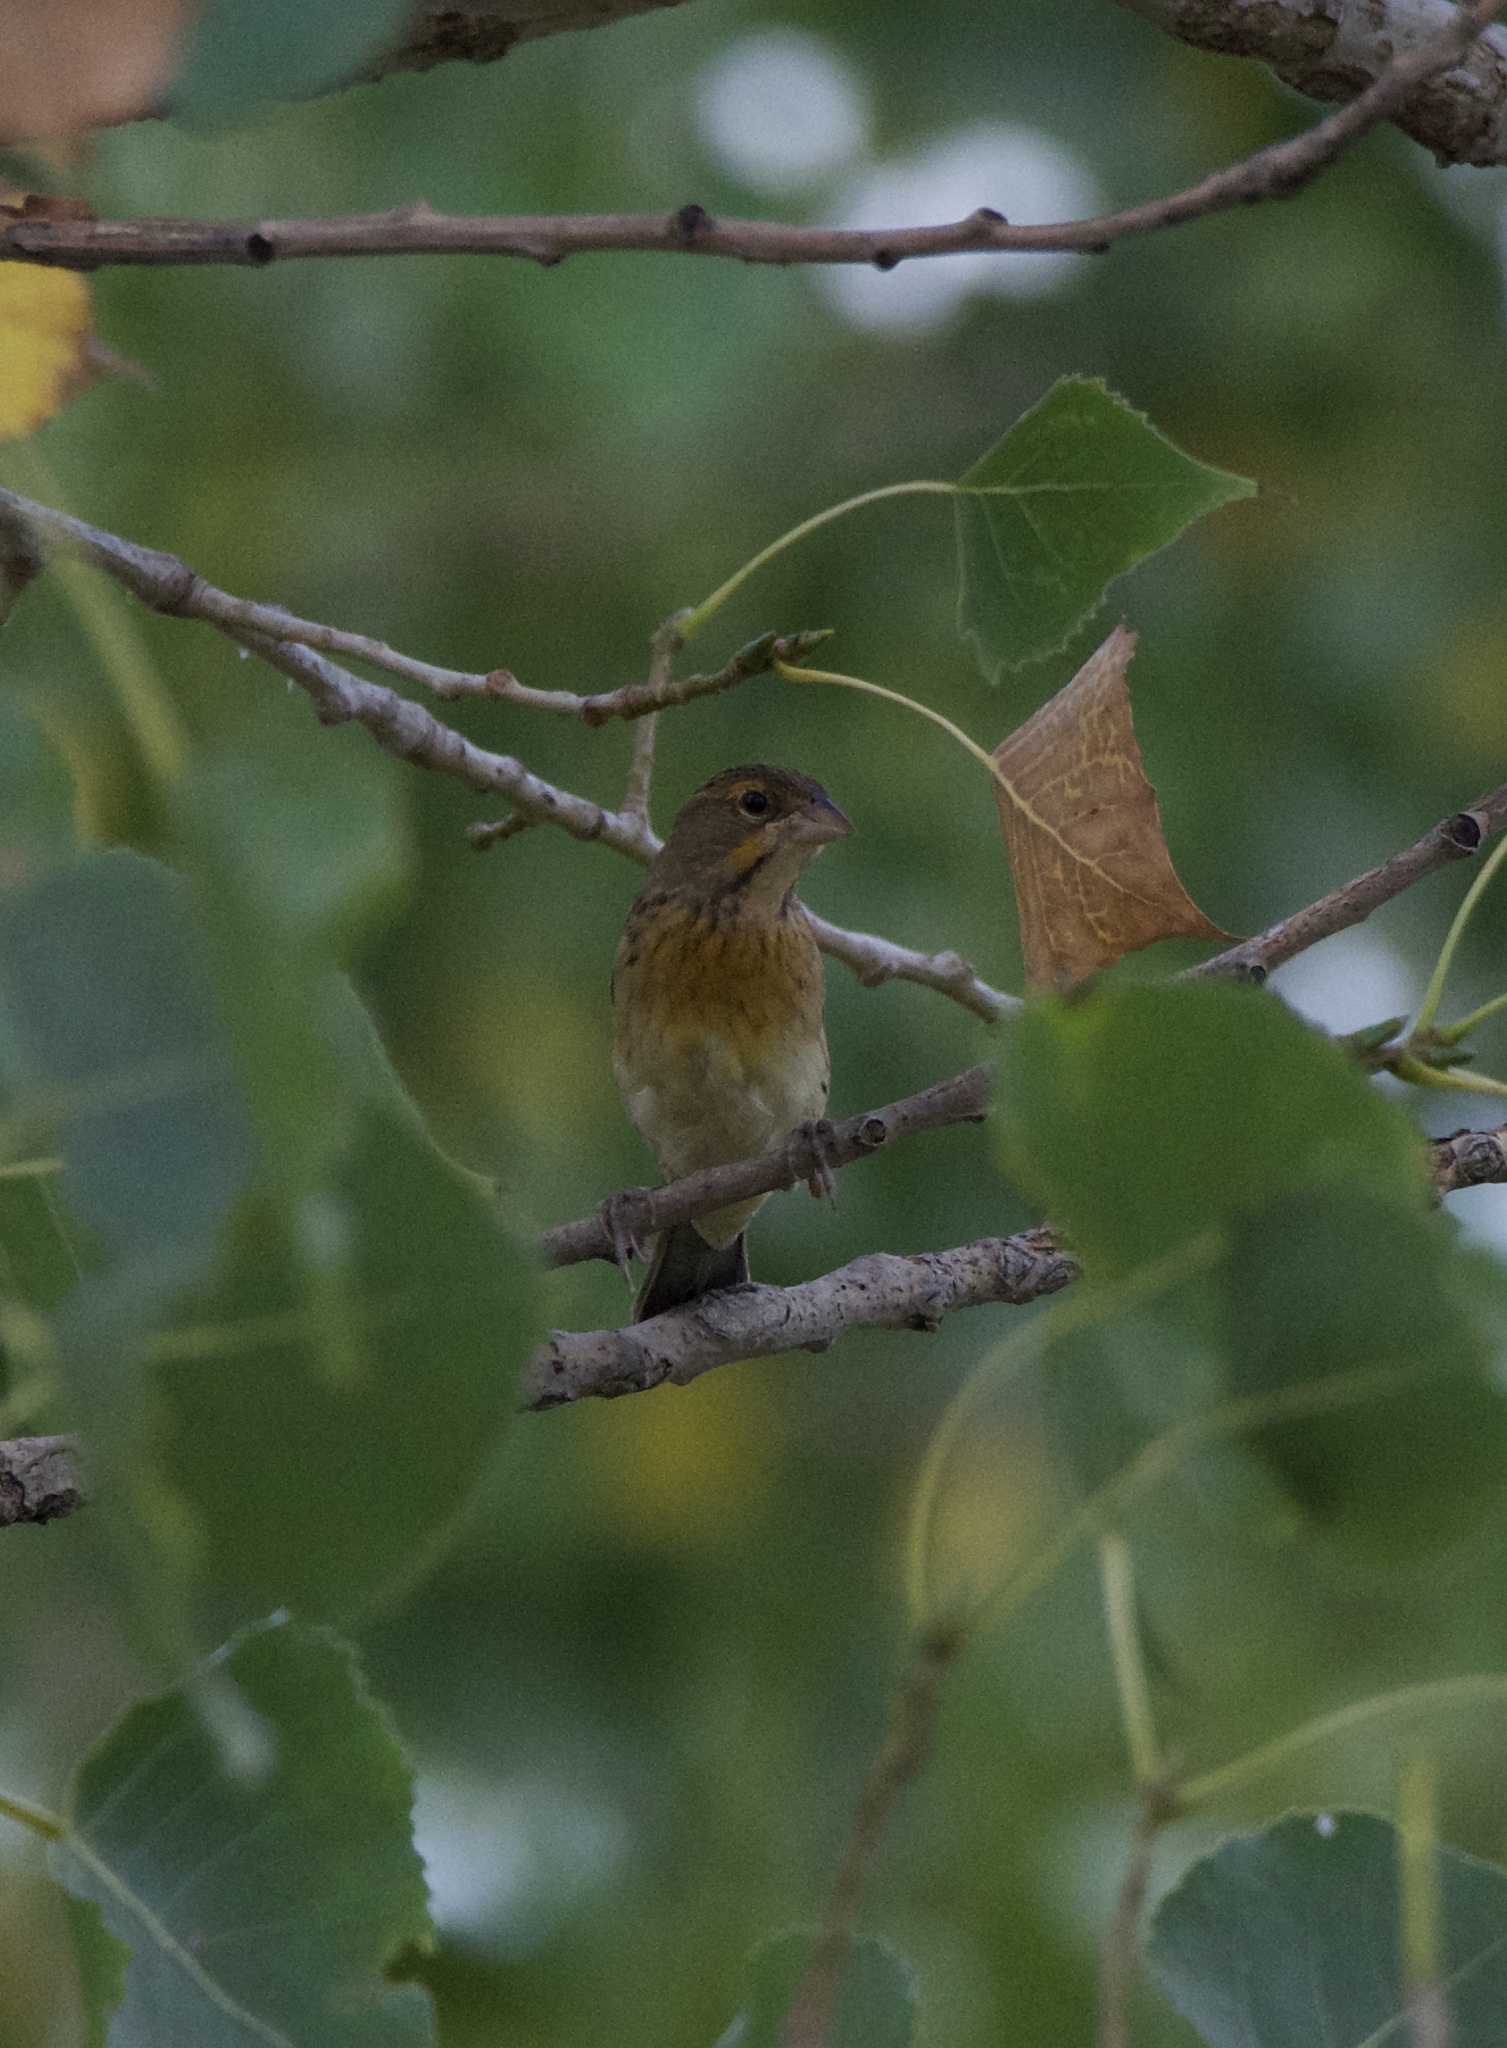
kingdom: Animalia
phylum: Chordata
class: Aves
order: Passeriformes
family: Cardinalidae
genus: Spiza
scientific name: Spiza americana
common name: Dickcissel
